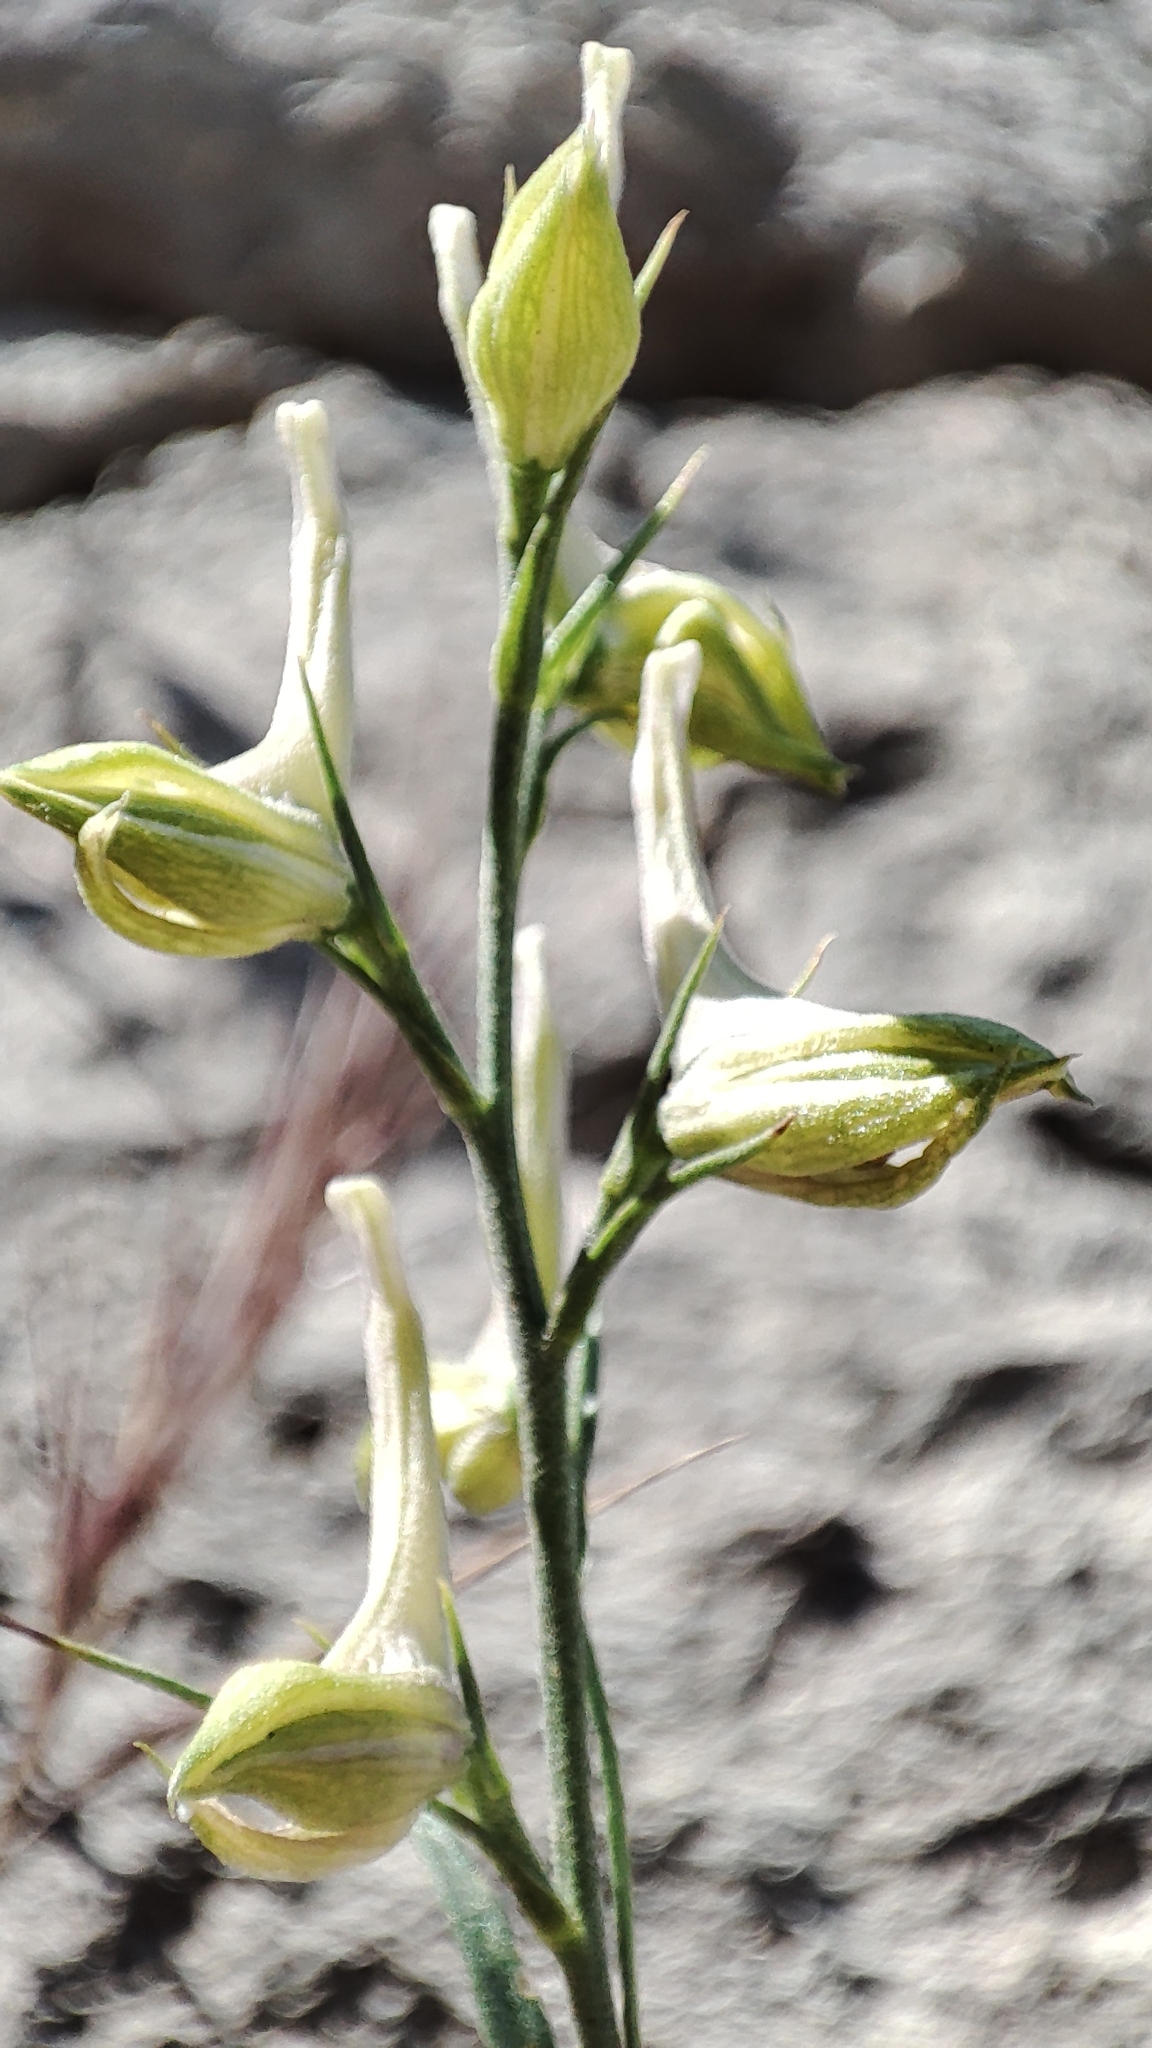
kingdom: Plantae
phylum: Tracheophyta
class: Magnoliopsida
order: Ranunculales
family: Ranunculaceae
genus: Delphinium
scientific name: Delphinium peregrinum
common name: Violet larkspur
